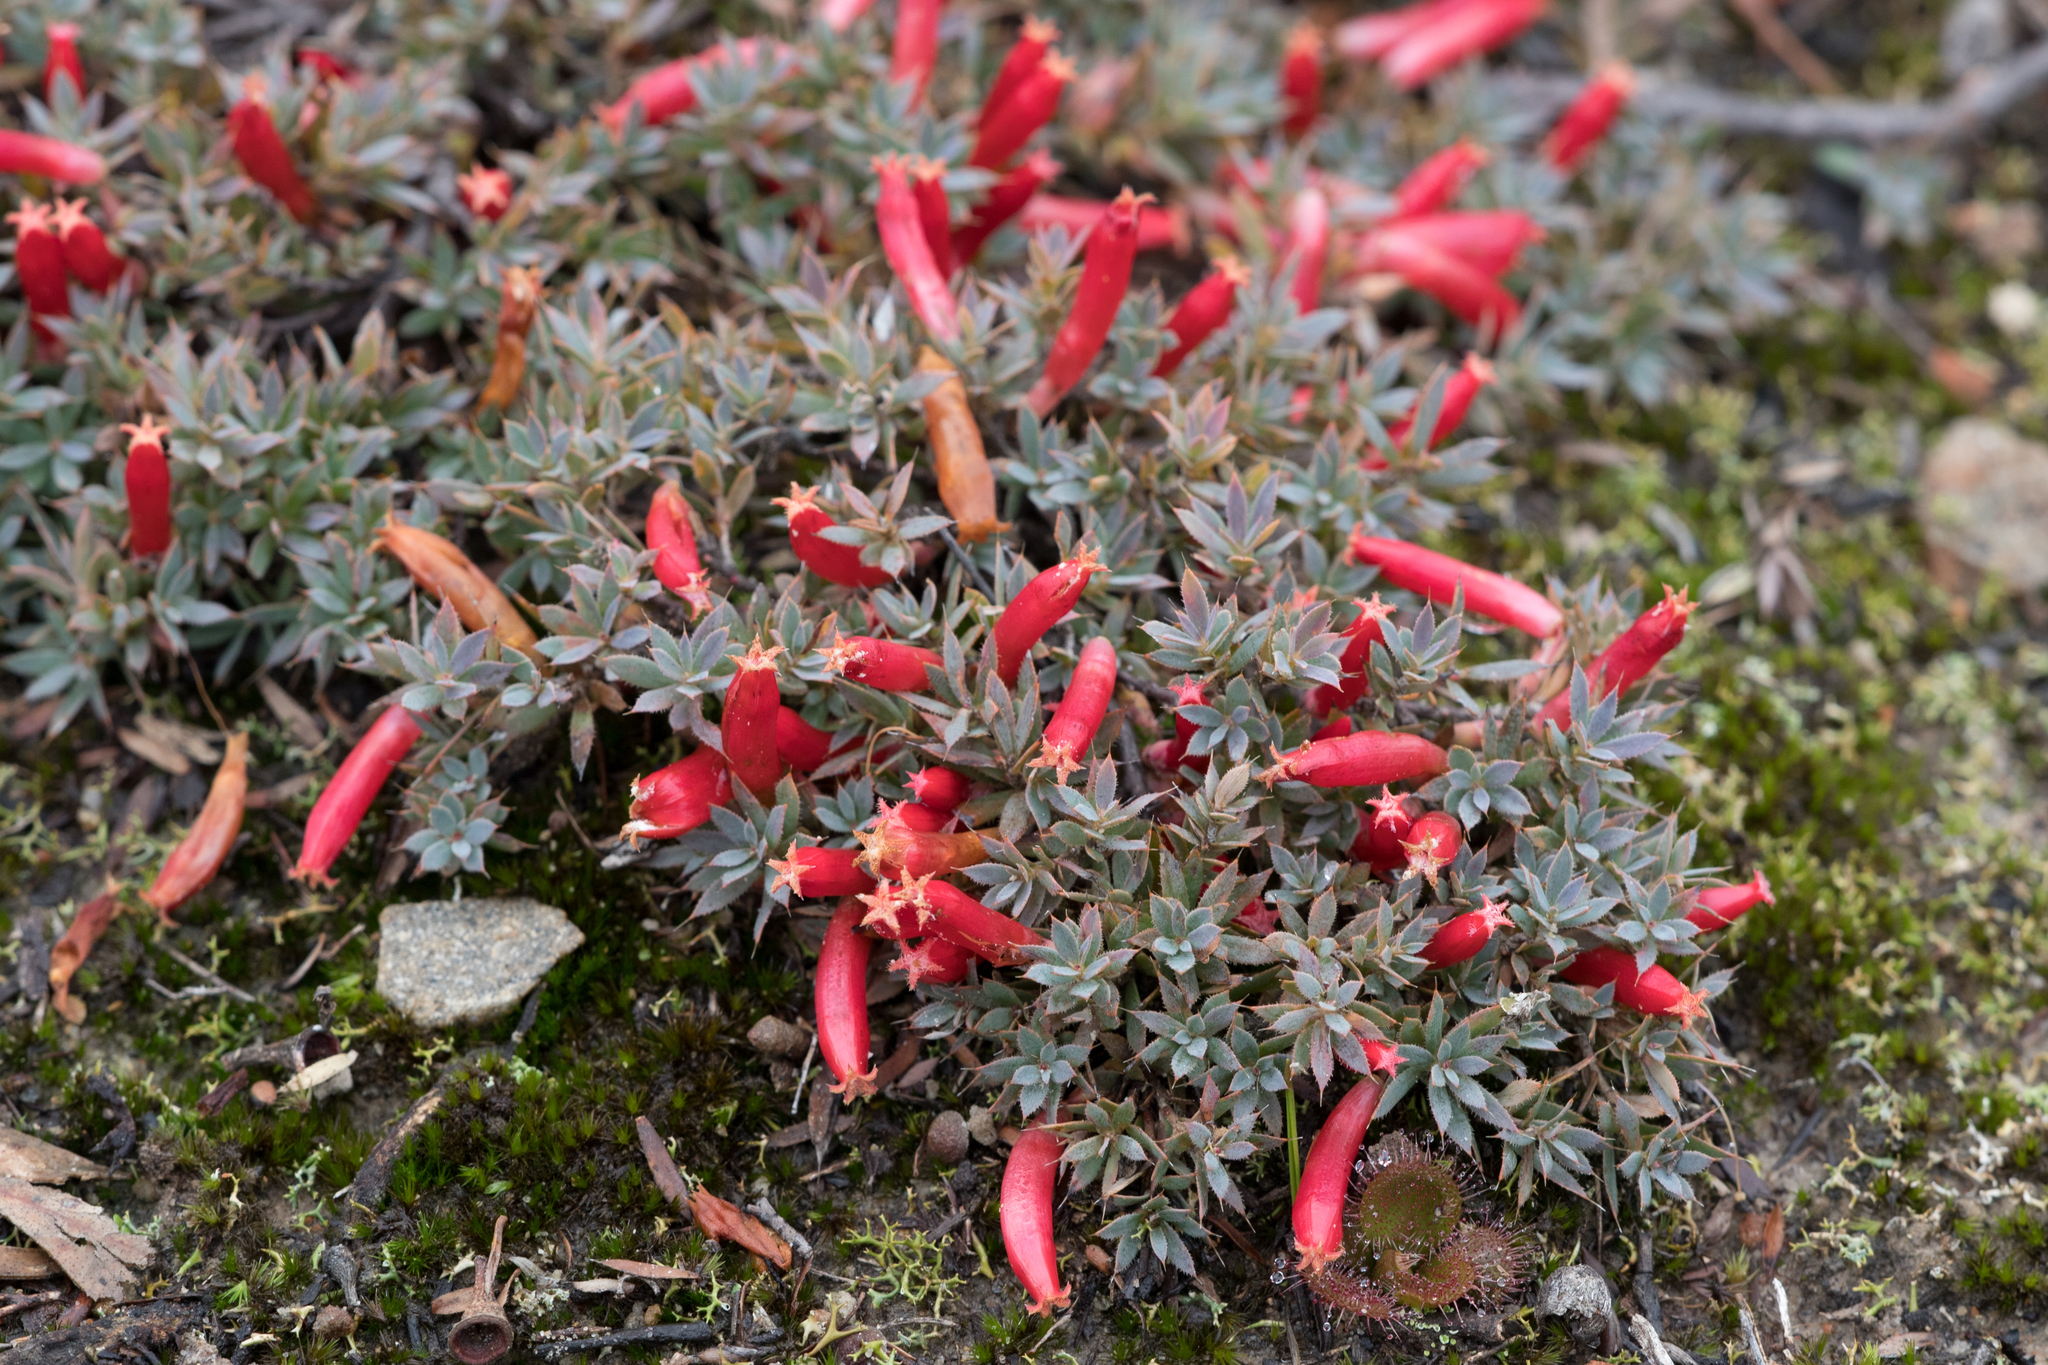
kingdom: Plantae
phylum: Tracheophyta
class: Magnoliopsida
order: Ericales
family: Ericaceae
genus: Styphelia
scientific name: Styphelia humifusa
